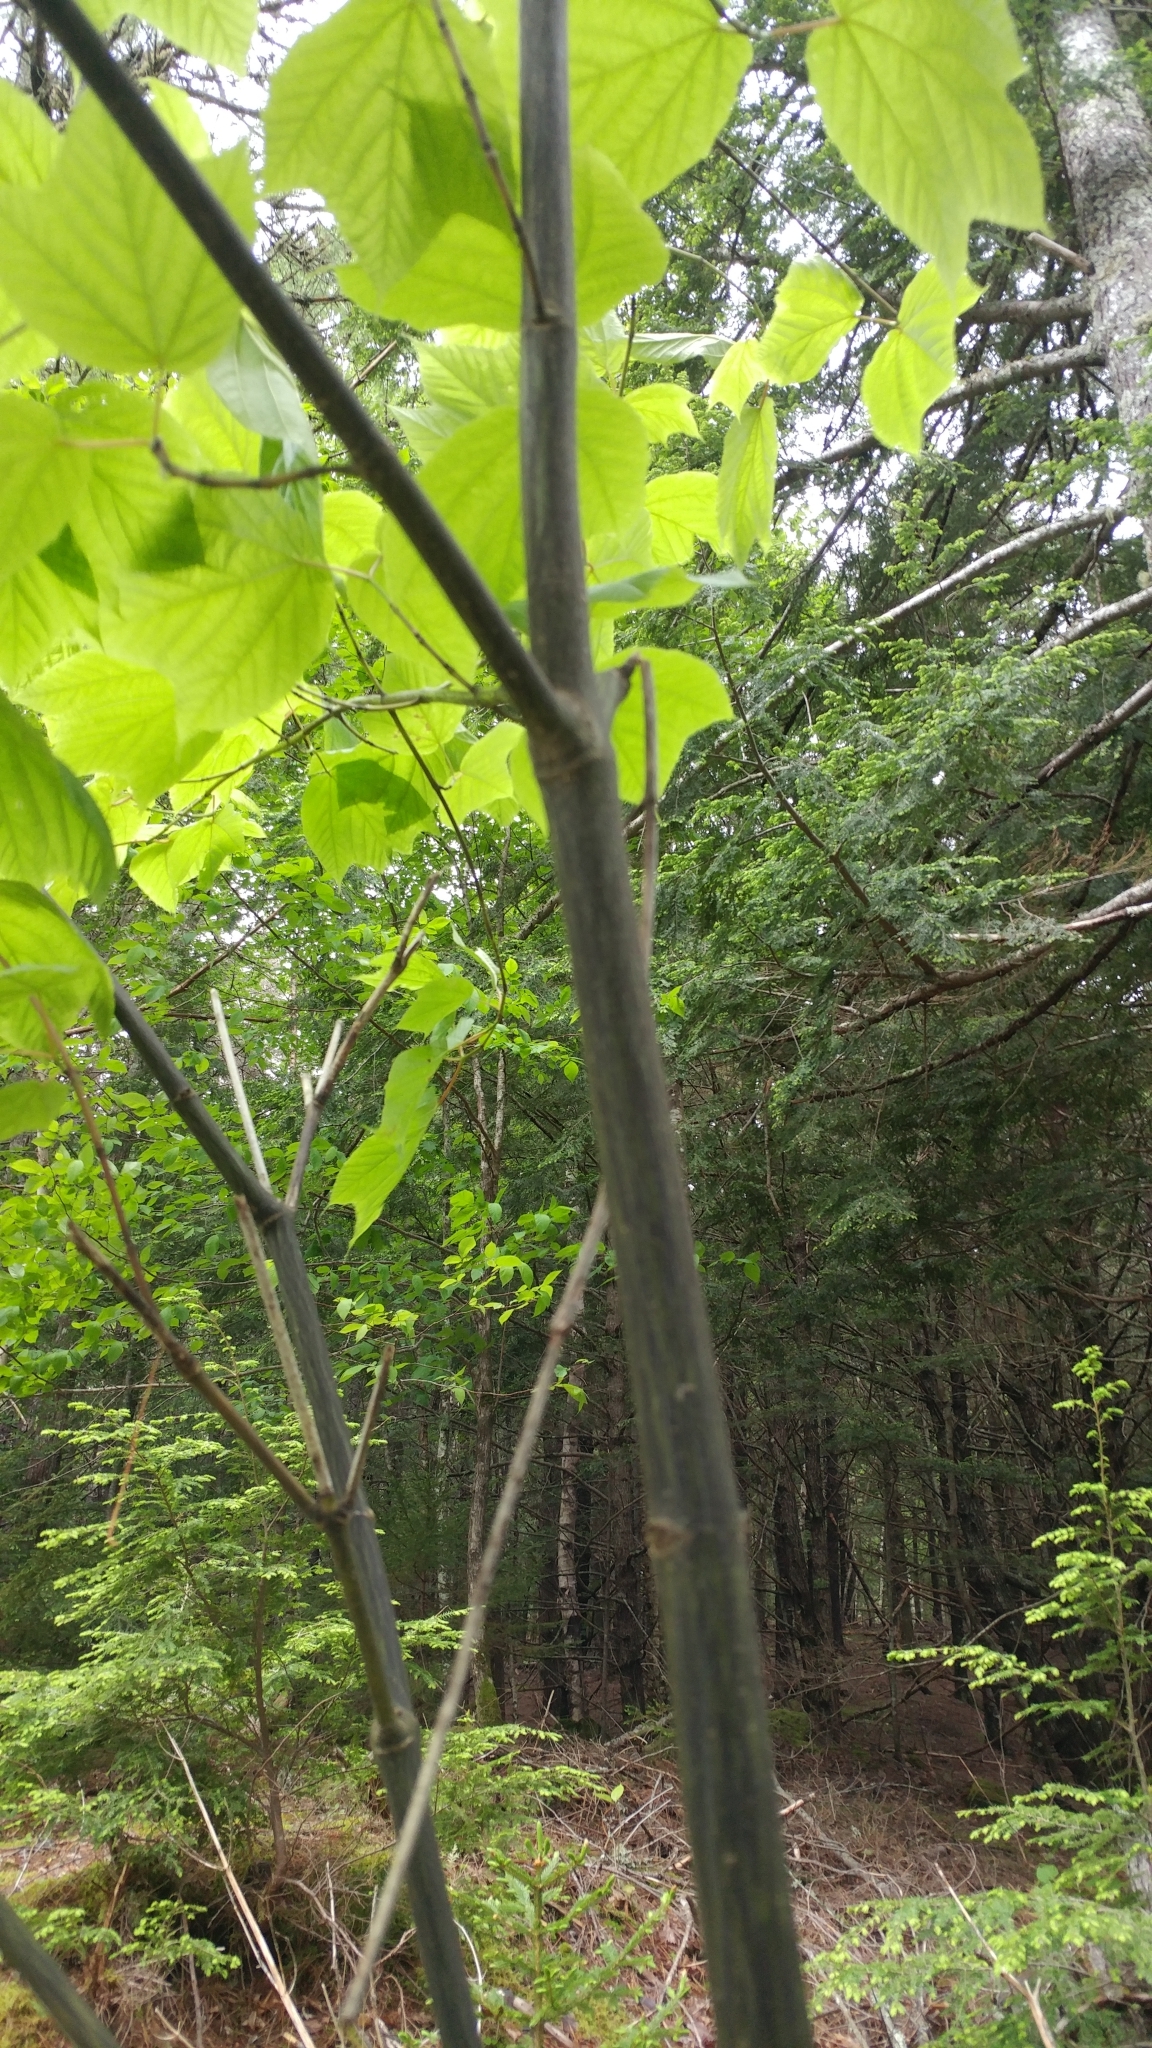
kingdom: Plantae
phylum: Tracheophyta
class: Magnoliopsida
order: Sapindales
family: Sapindaceae
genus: Acer
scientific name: Acer pensylvanicum
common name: Moosewood
